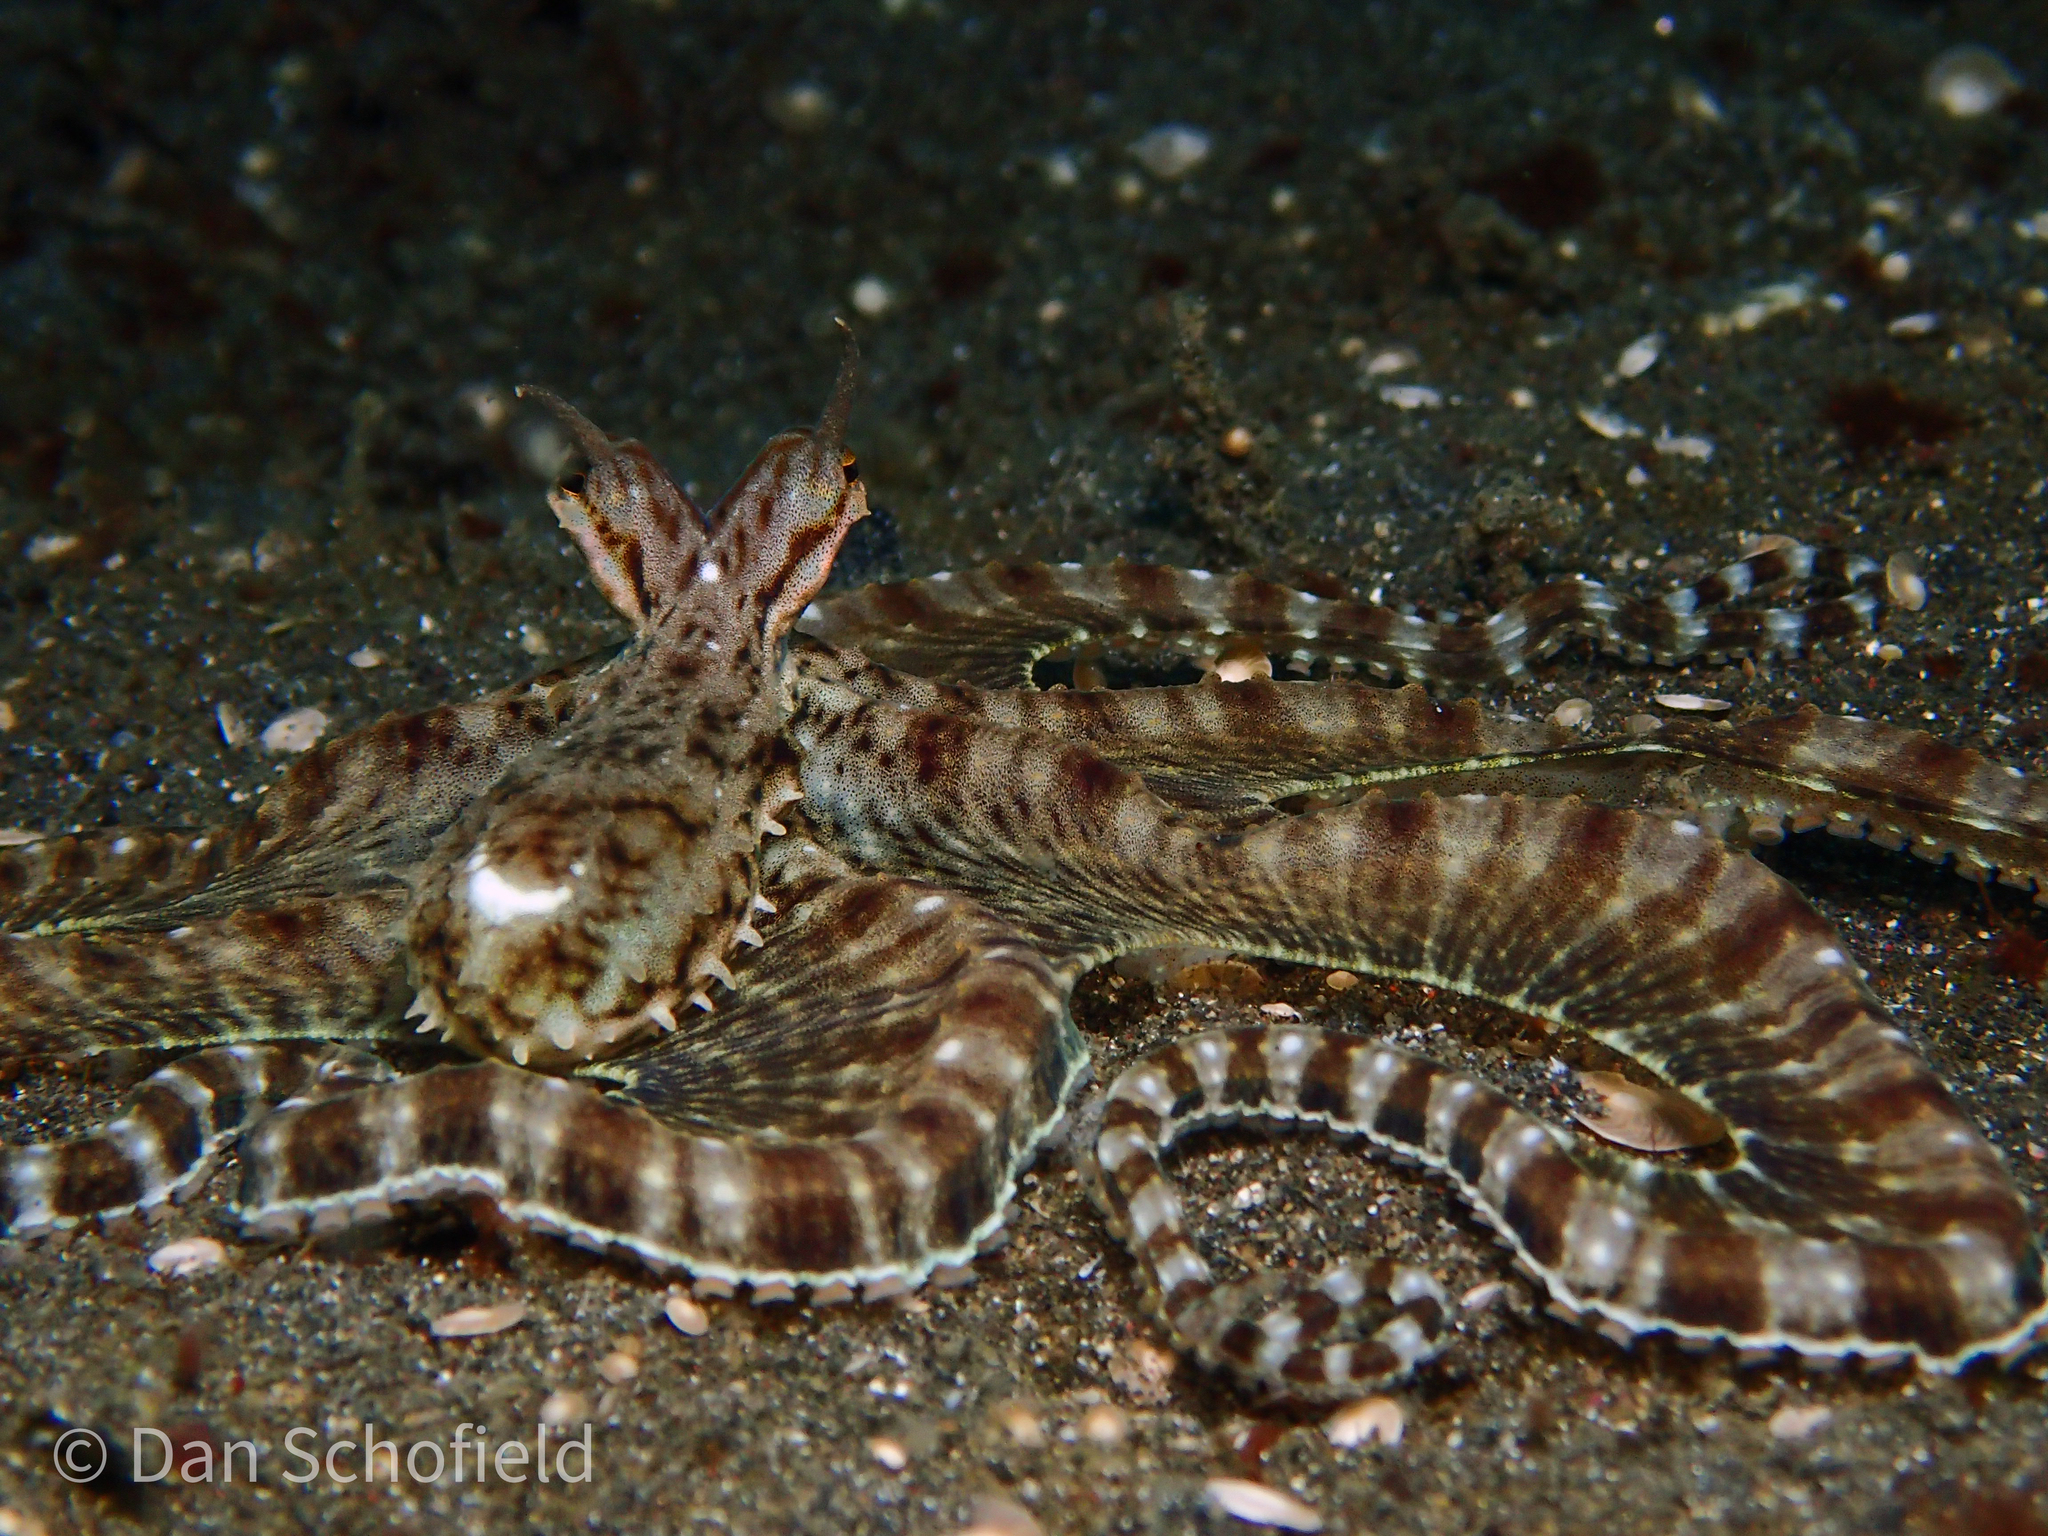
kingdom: Animalia
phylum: Mollusca
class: Cephalopoda
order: Octopoda
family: Octopodidae
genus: Thaumoctopus
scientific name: Thaumoctopus mimicus
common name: Mimic octopus
